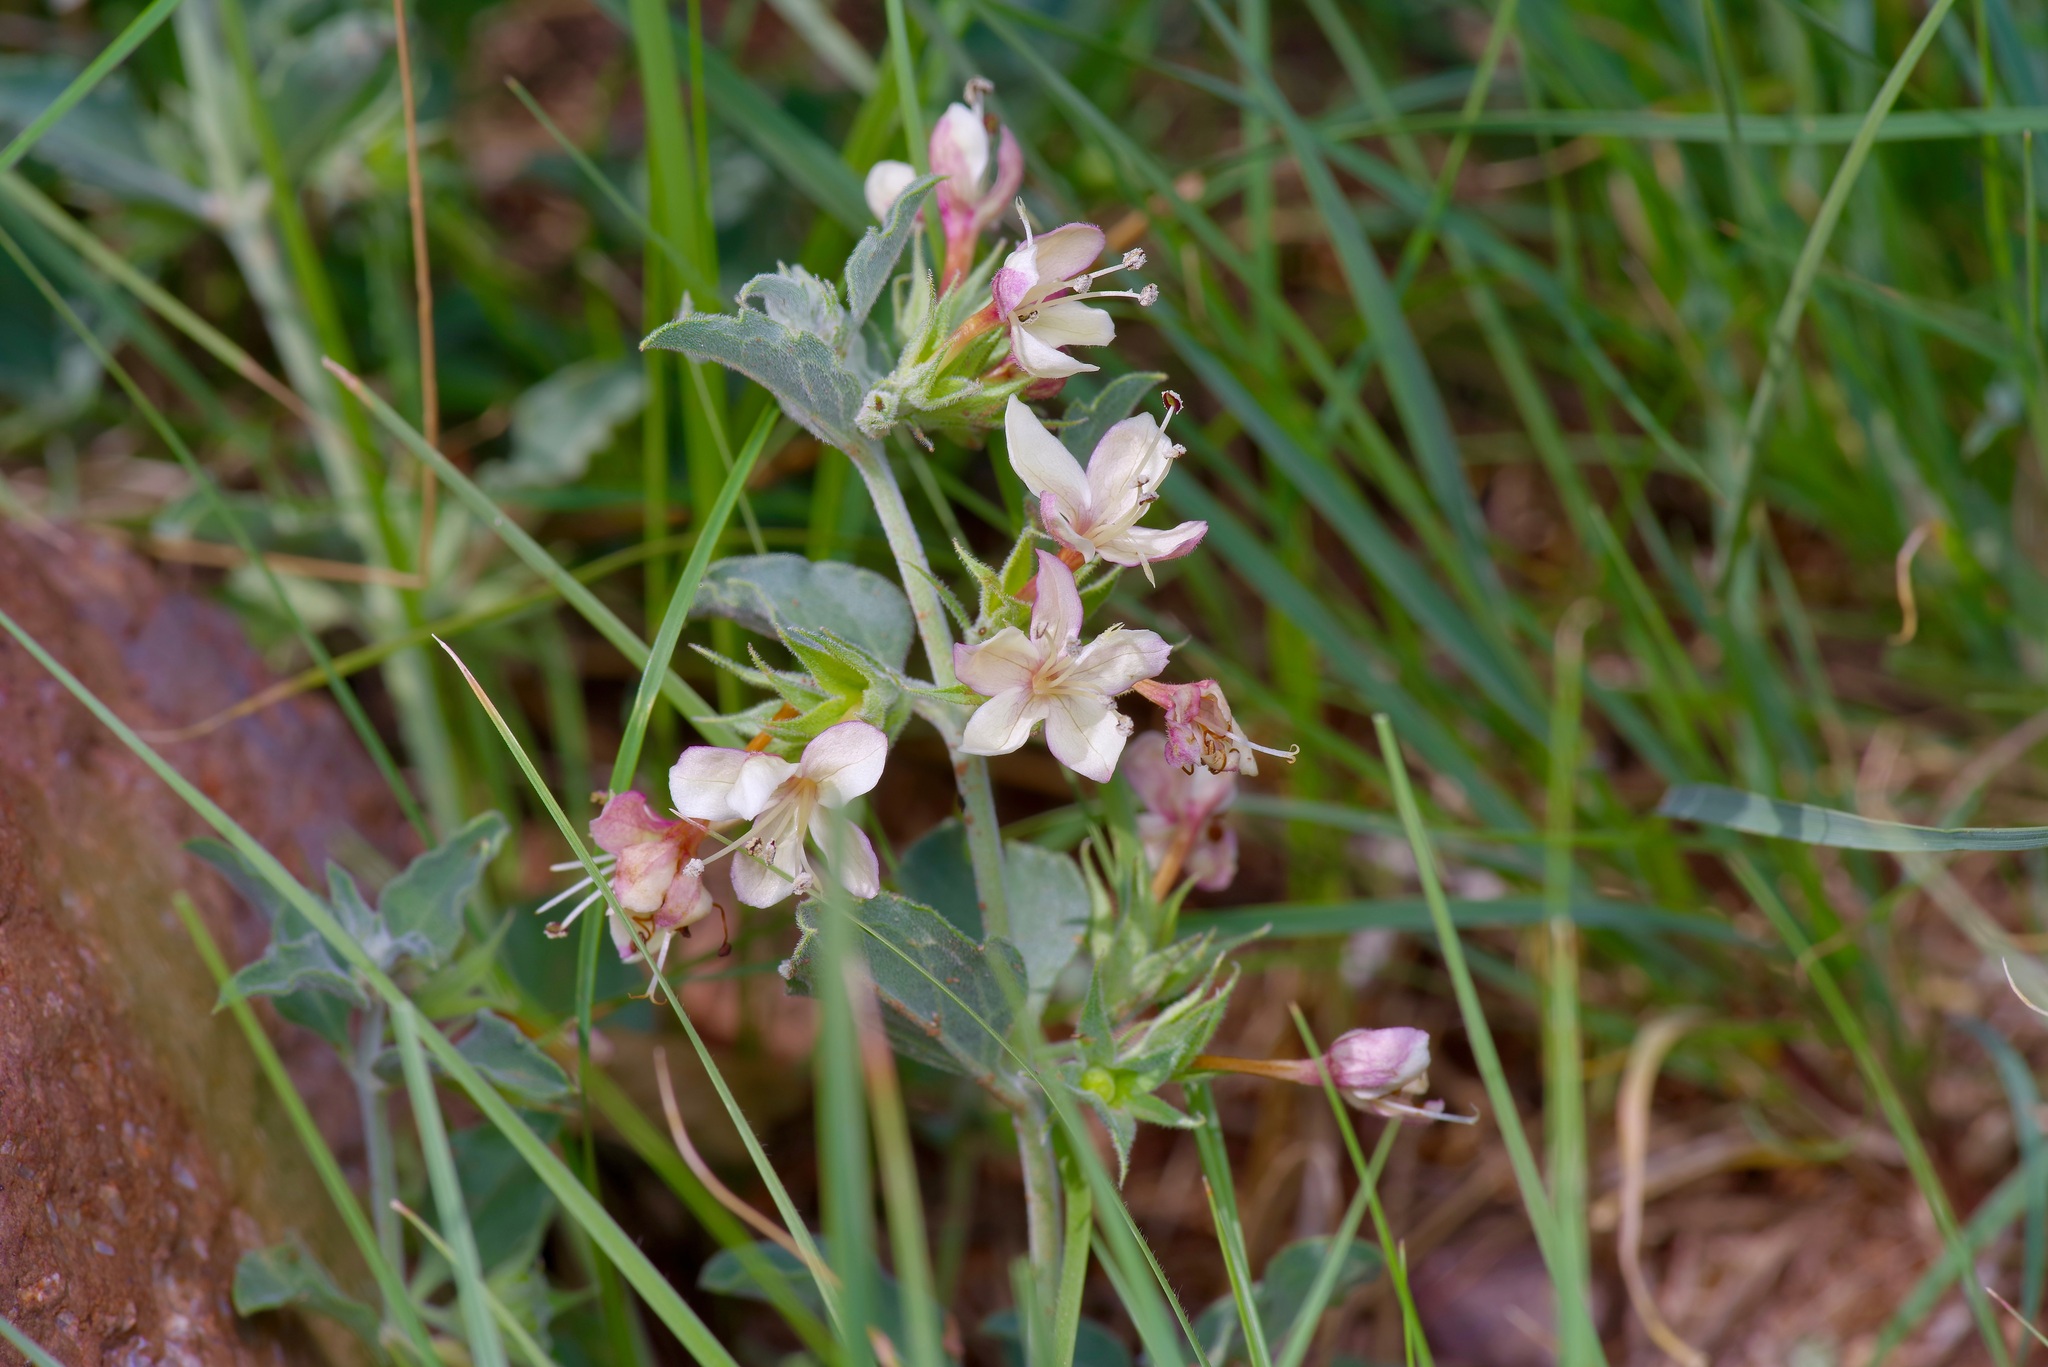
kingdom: Plantae
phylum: Tracheophyta
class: Magnoliopsida
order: Lamiales
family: Lamiaceae
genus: Tetraclea
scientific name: Tetraclea coulteri
